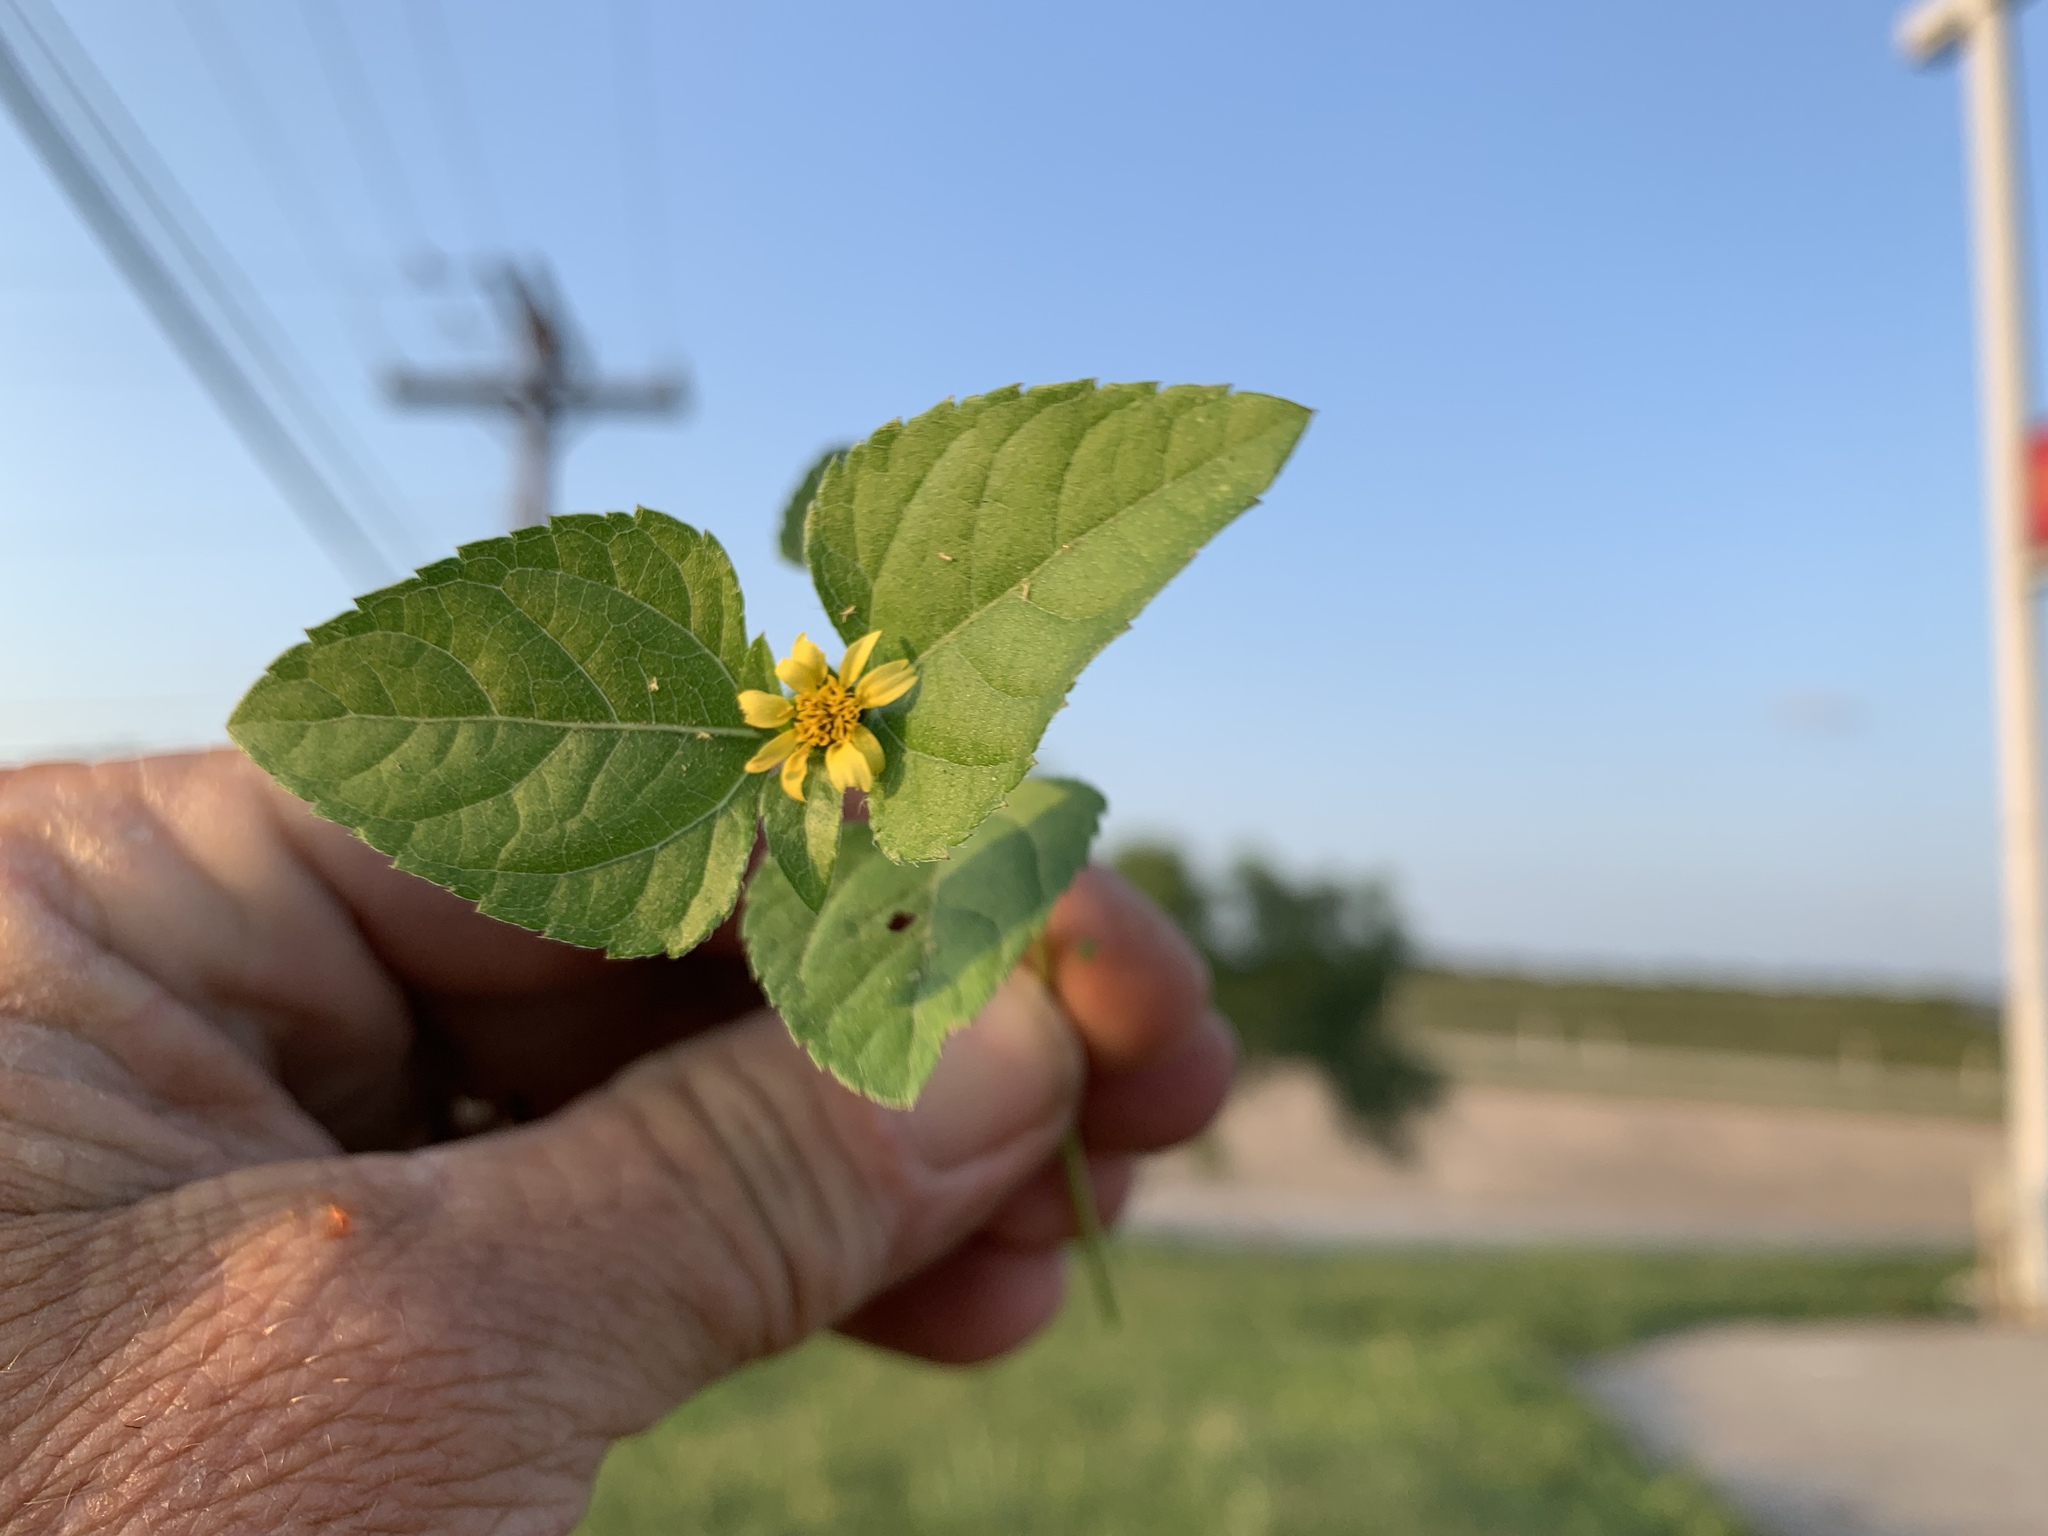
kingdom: Plantae
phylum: Tracheophyta
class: Magnoliopsida
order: Asterales
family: Asteraceae
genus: Calyptocarpus
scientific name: Calyptocarpus vialis
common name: Straggler daisy
